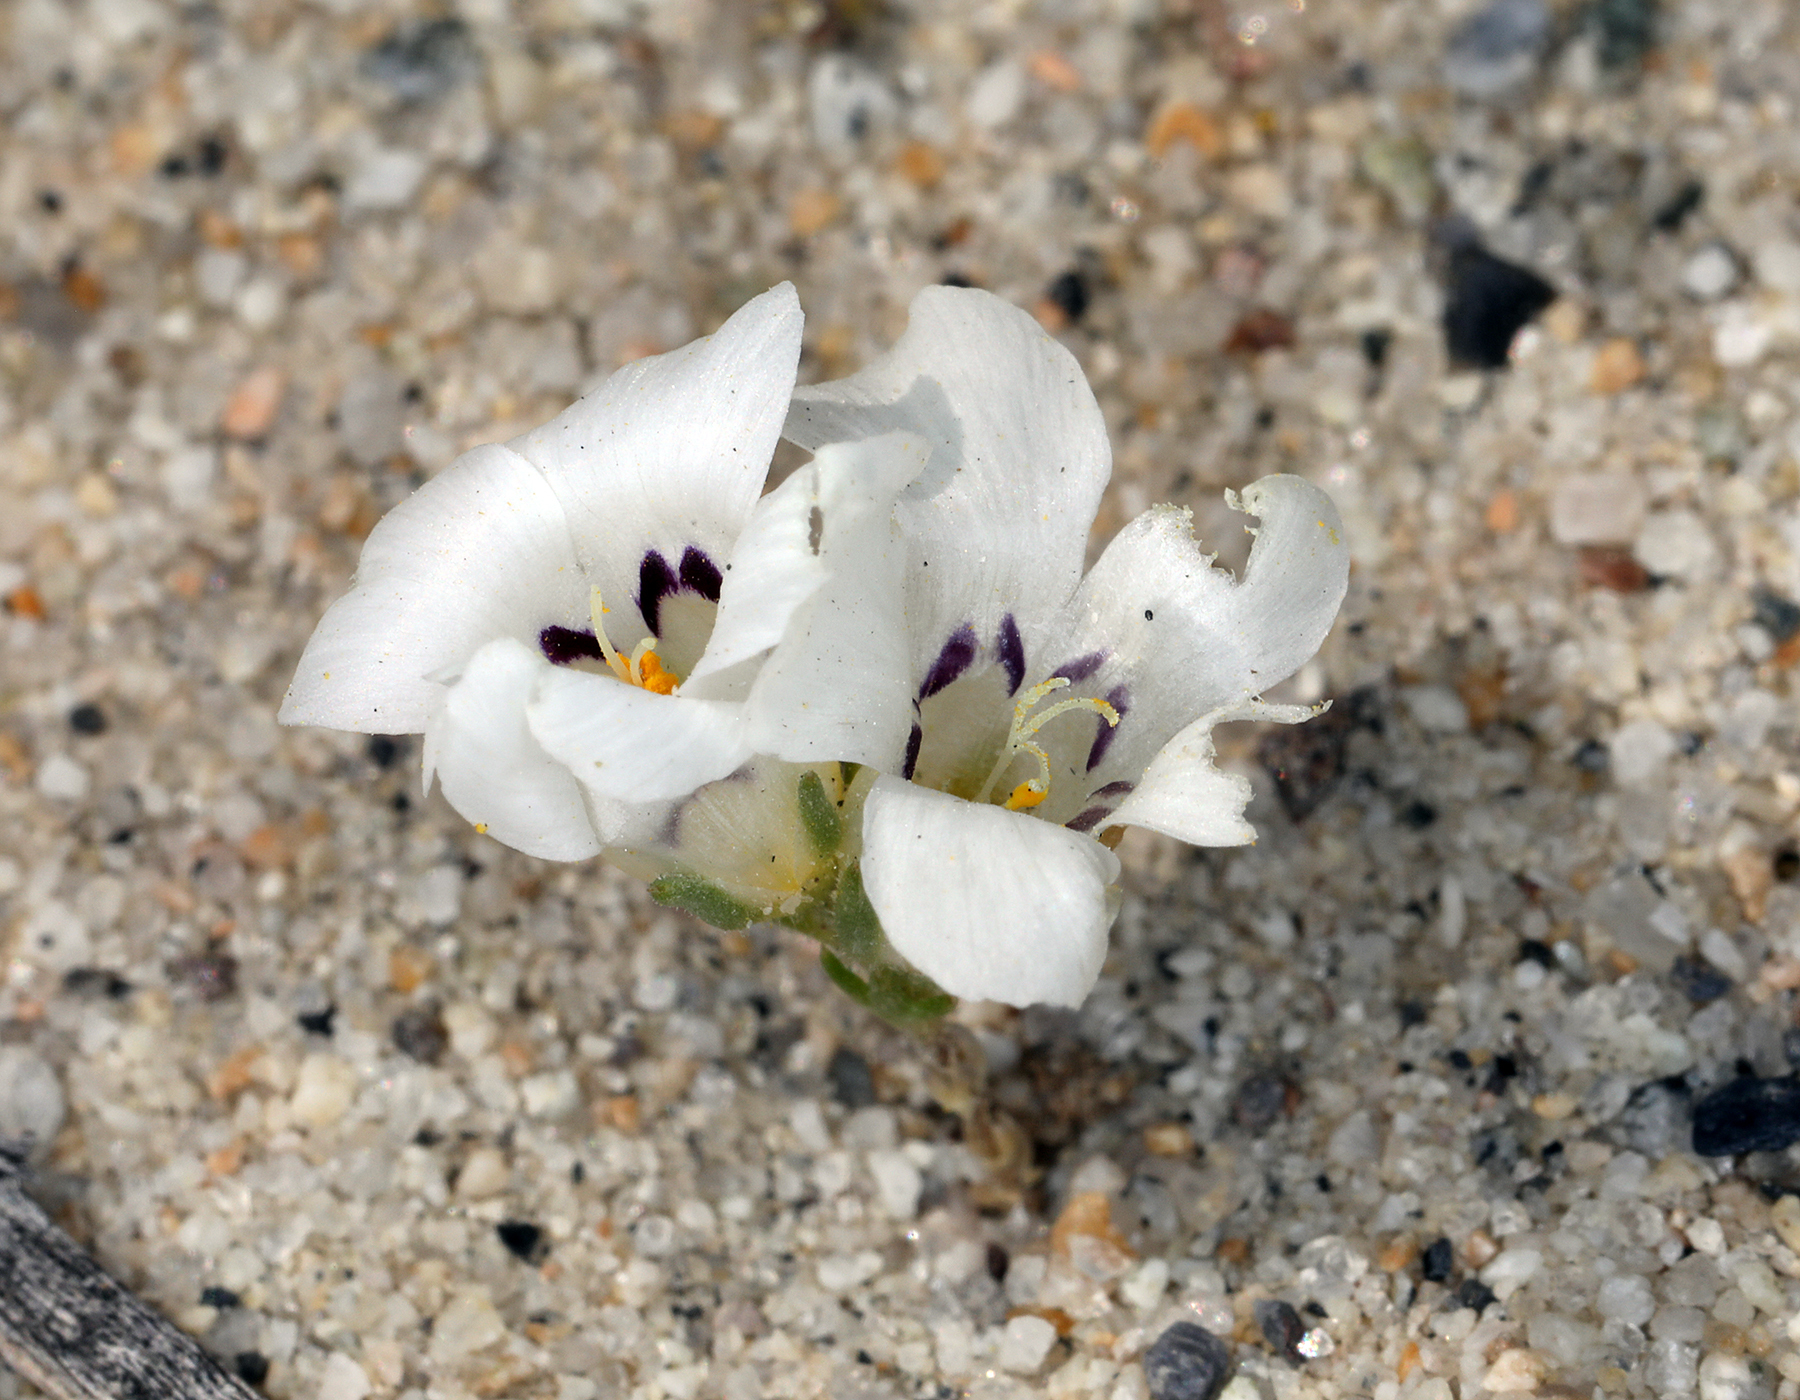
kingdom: Plantae
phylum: Tracheophyta
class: Magnoliopsida
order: Ericales
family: Polemoniaceae
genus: Linanthus
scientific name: Linanthus parryae
